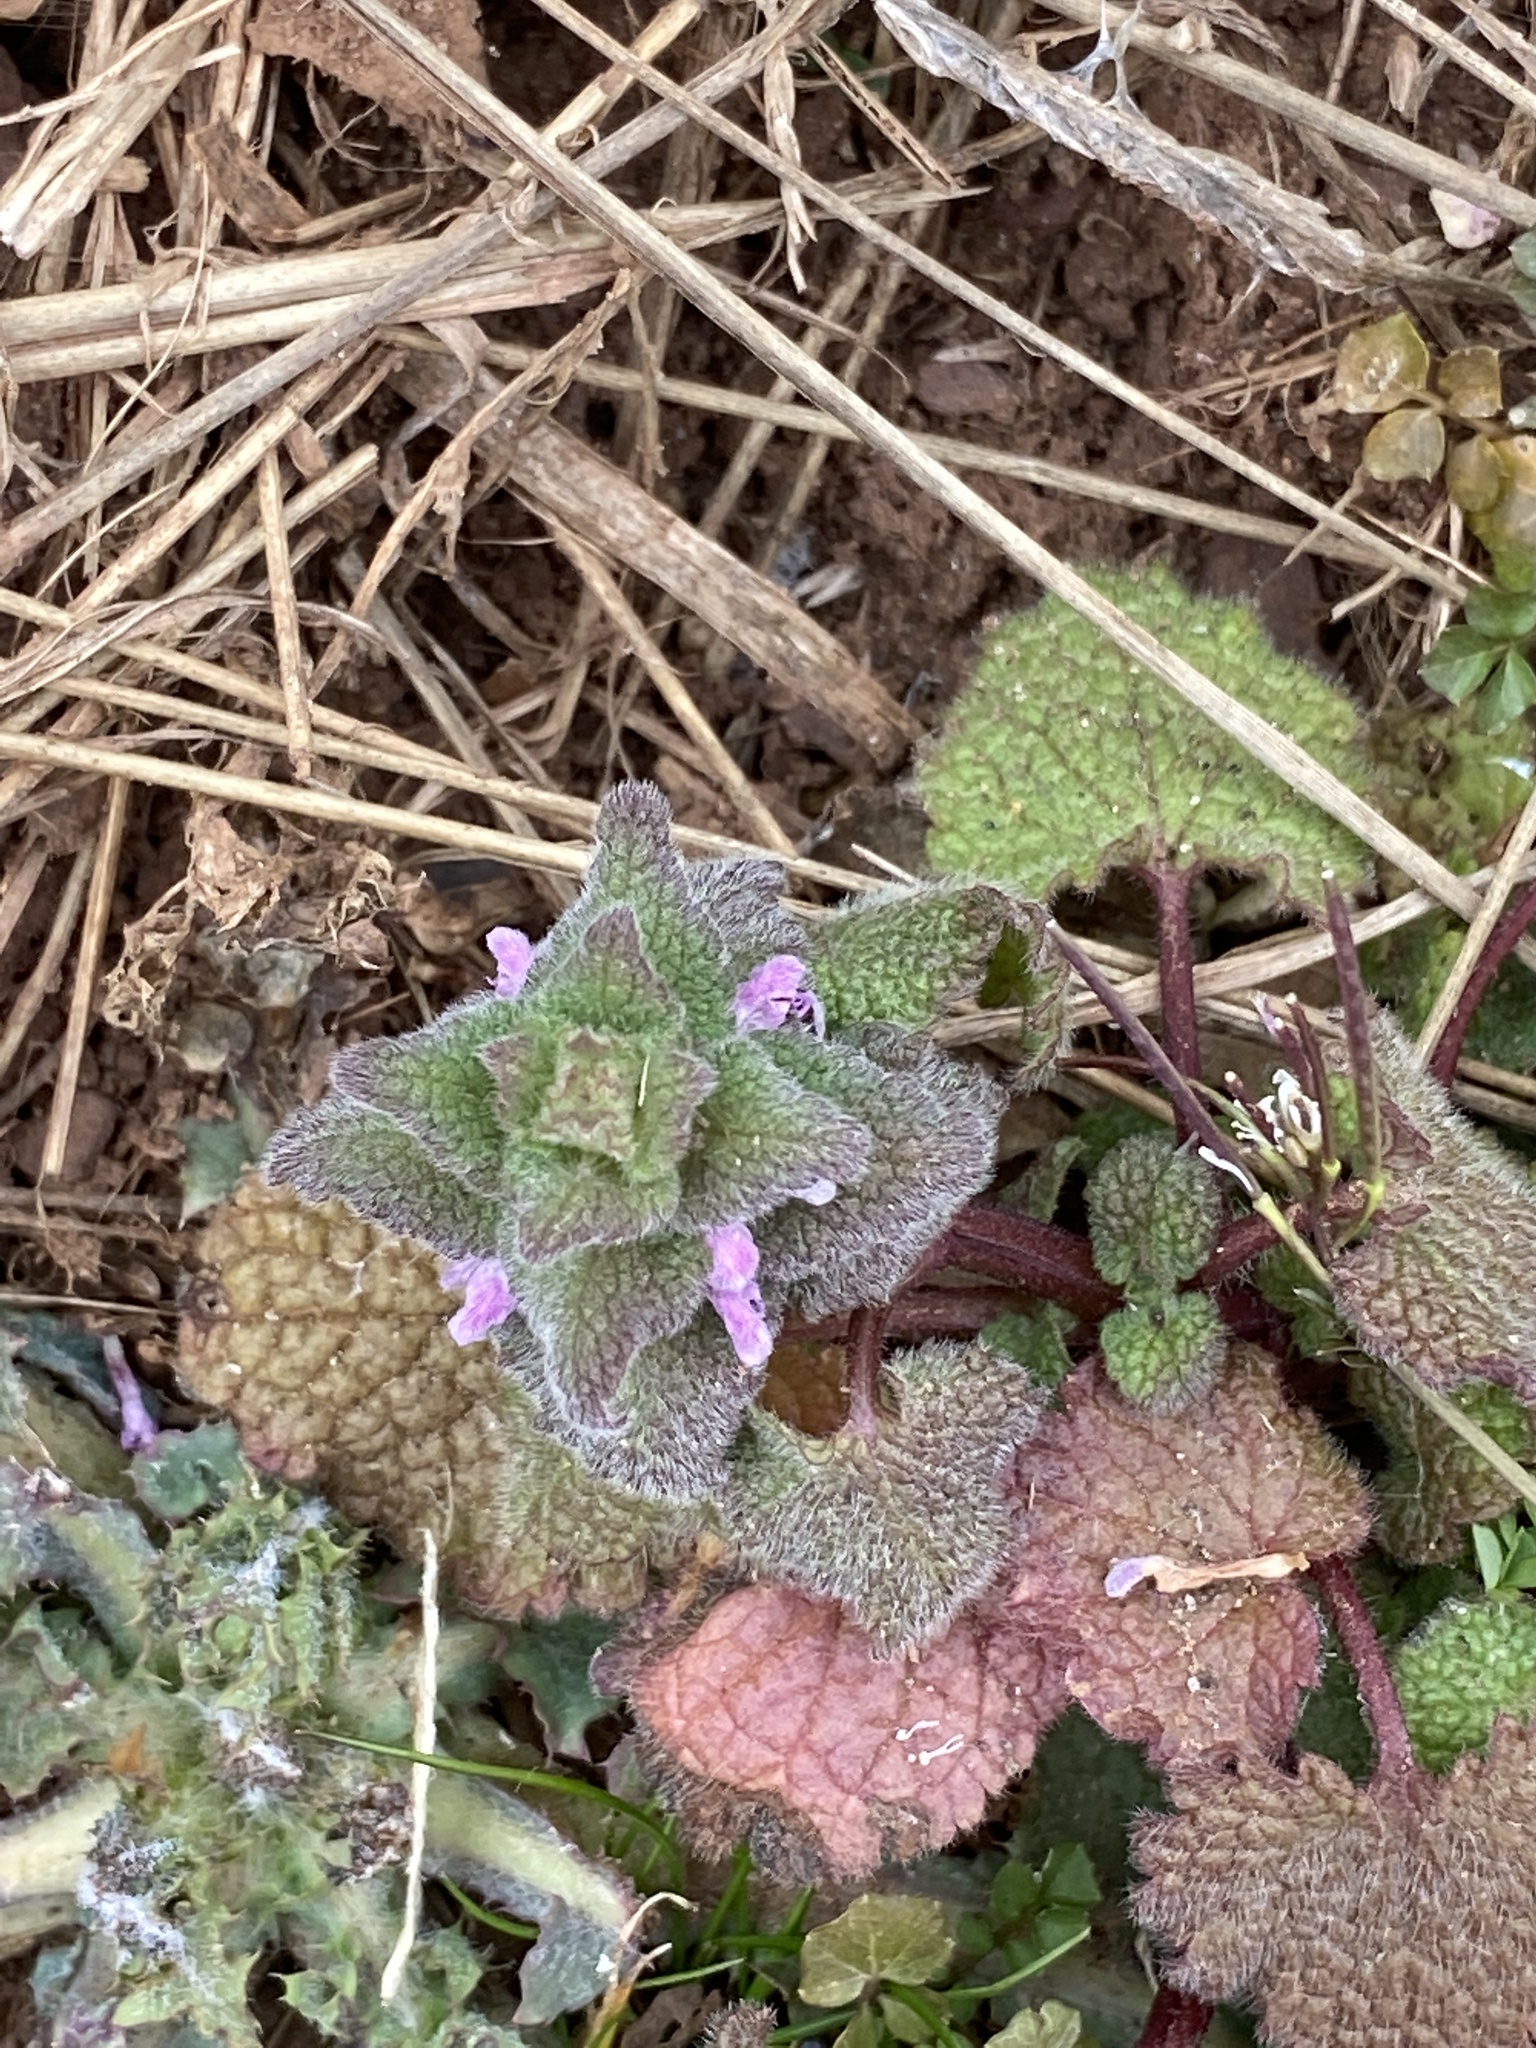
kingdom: Plantae
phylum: Tracheophyta
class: Magnoliopsida
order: Lamiales
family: Lamiaceae
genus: Lamium
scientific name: Lamium purpureum
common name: Red dead-nettle
